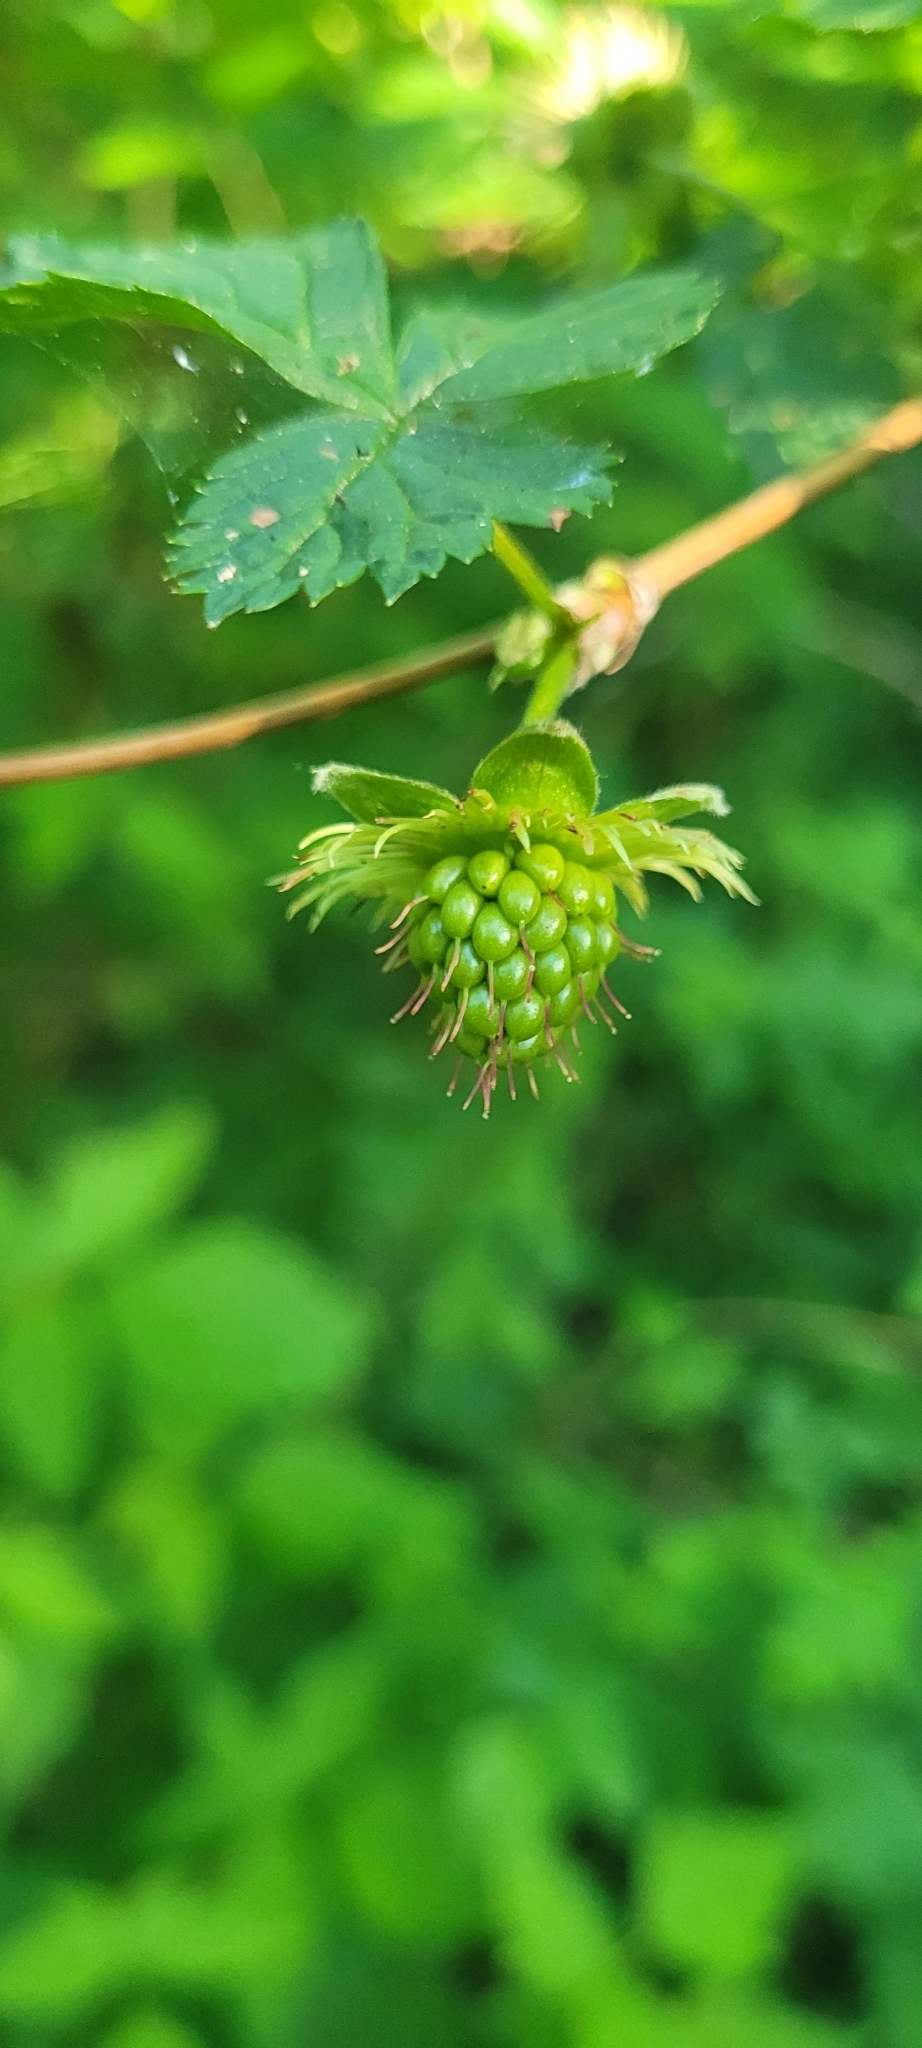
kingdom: Plantae
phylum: Tracheophyta
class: Magnoliopsida
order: Rosales
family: Rosaceae
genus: Rubus
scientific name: Rubus spectabilis
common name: Salmonberry
